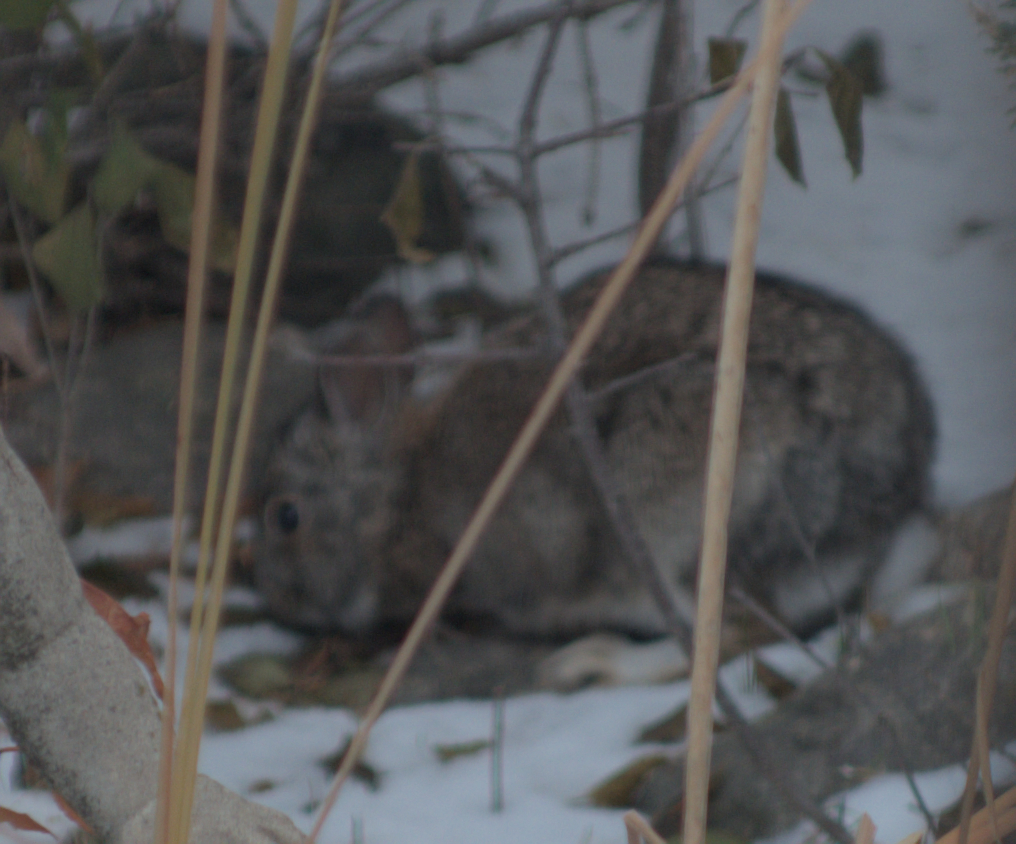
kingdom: Animalia
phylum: Chordata
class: Mammalia
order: Lagomorpha
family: Leporidae
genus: Sylvilagus
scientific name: Sylvilagus floridanus
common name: Eastern cottontail
